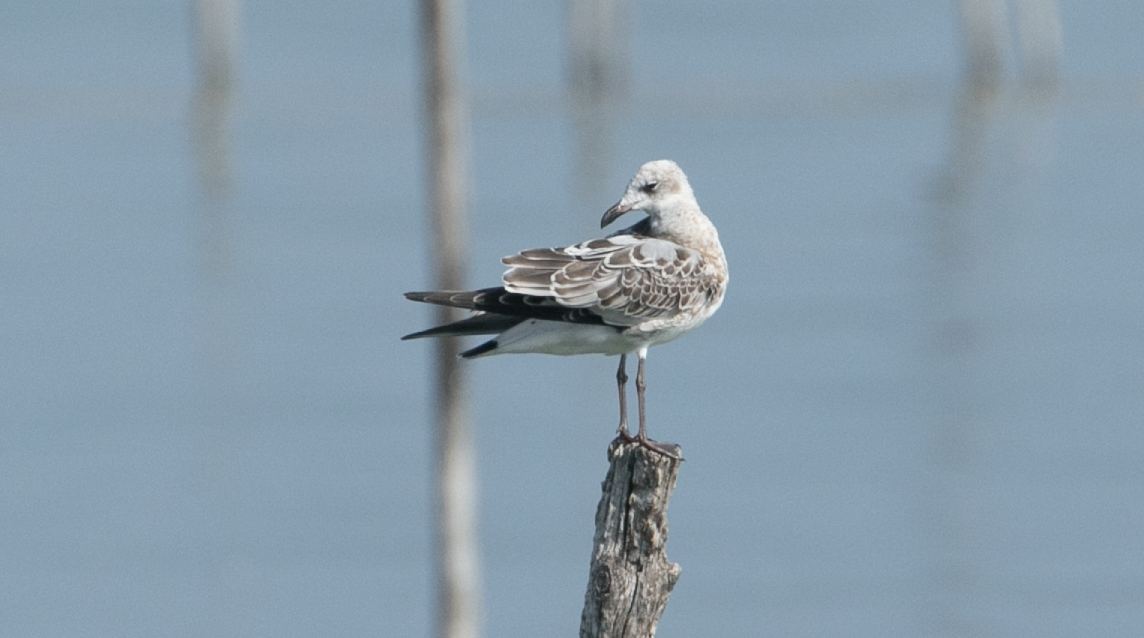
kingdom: Animalia
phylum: Chordata
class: Aves
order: Charadriiformes
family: Laridae
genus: Ichthyaetus
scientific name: Ichthyaetus melanocephalus
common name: Mediterranean gull
